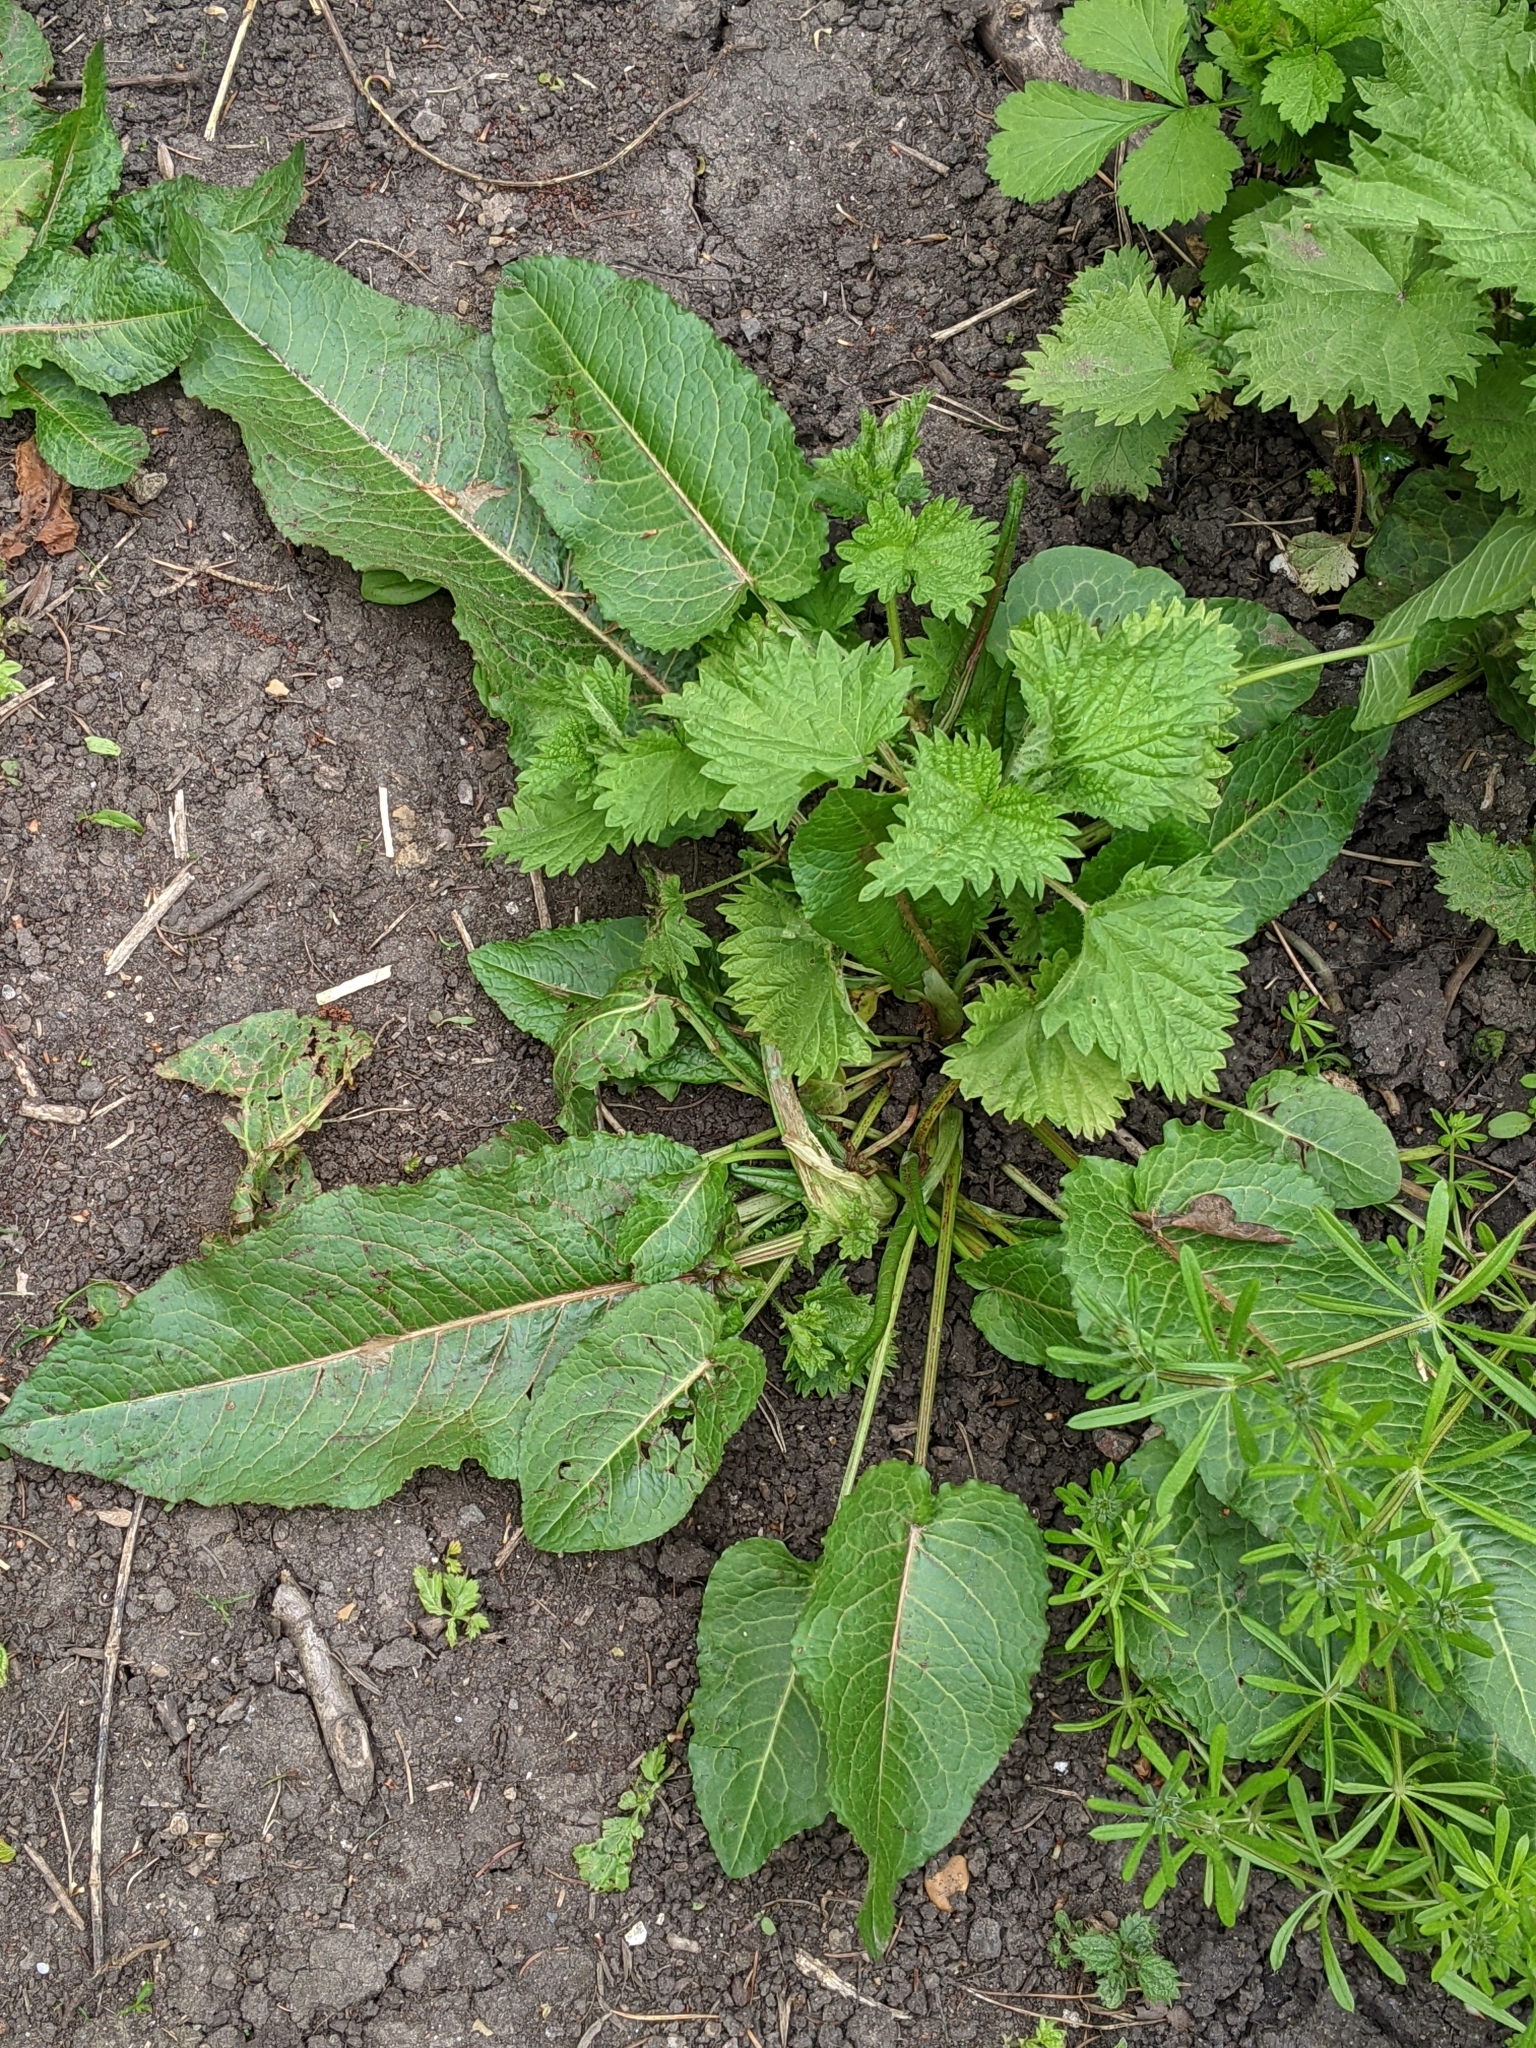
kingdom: Plantae
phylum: Tracheophyta
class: Magnoliopsida
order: Caryophyllales
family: Polygonaceae
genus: Rumex
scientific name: Rumex obtusifolius
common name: Bitter dock
